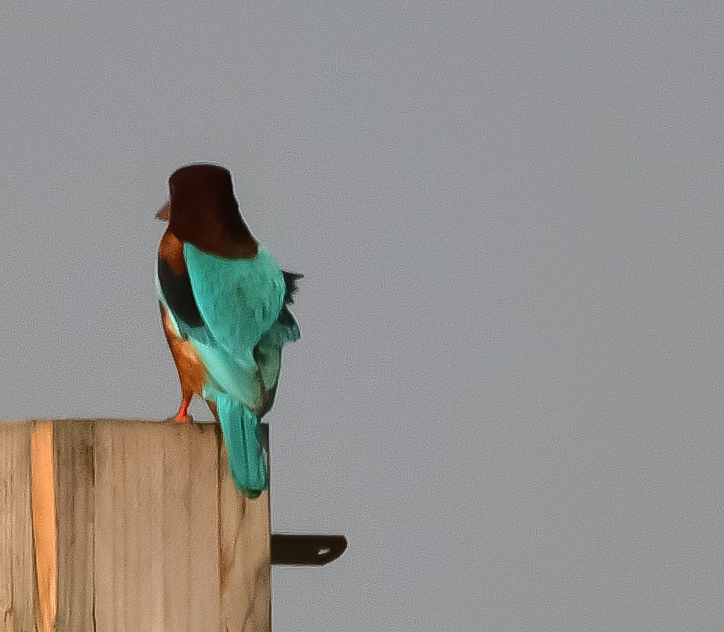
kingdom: Animalia
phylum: Chordata
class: Aves
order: Coraciiformes
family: Alcedinidae
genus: Halcyon
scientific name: Halcyon smyrnensis
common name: White-throated kingfisher
